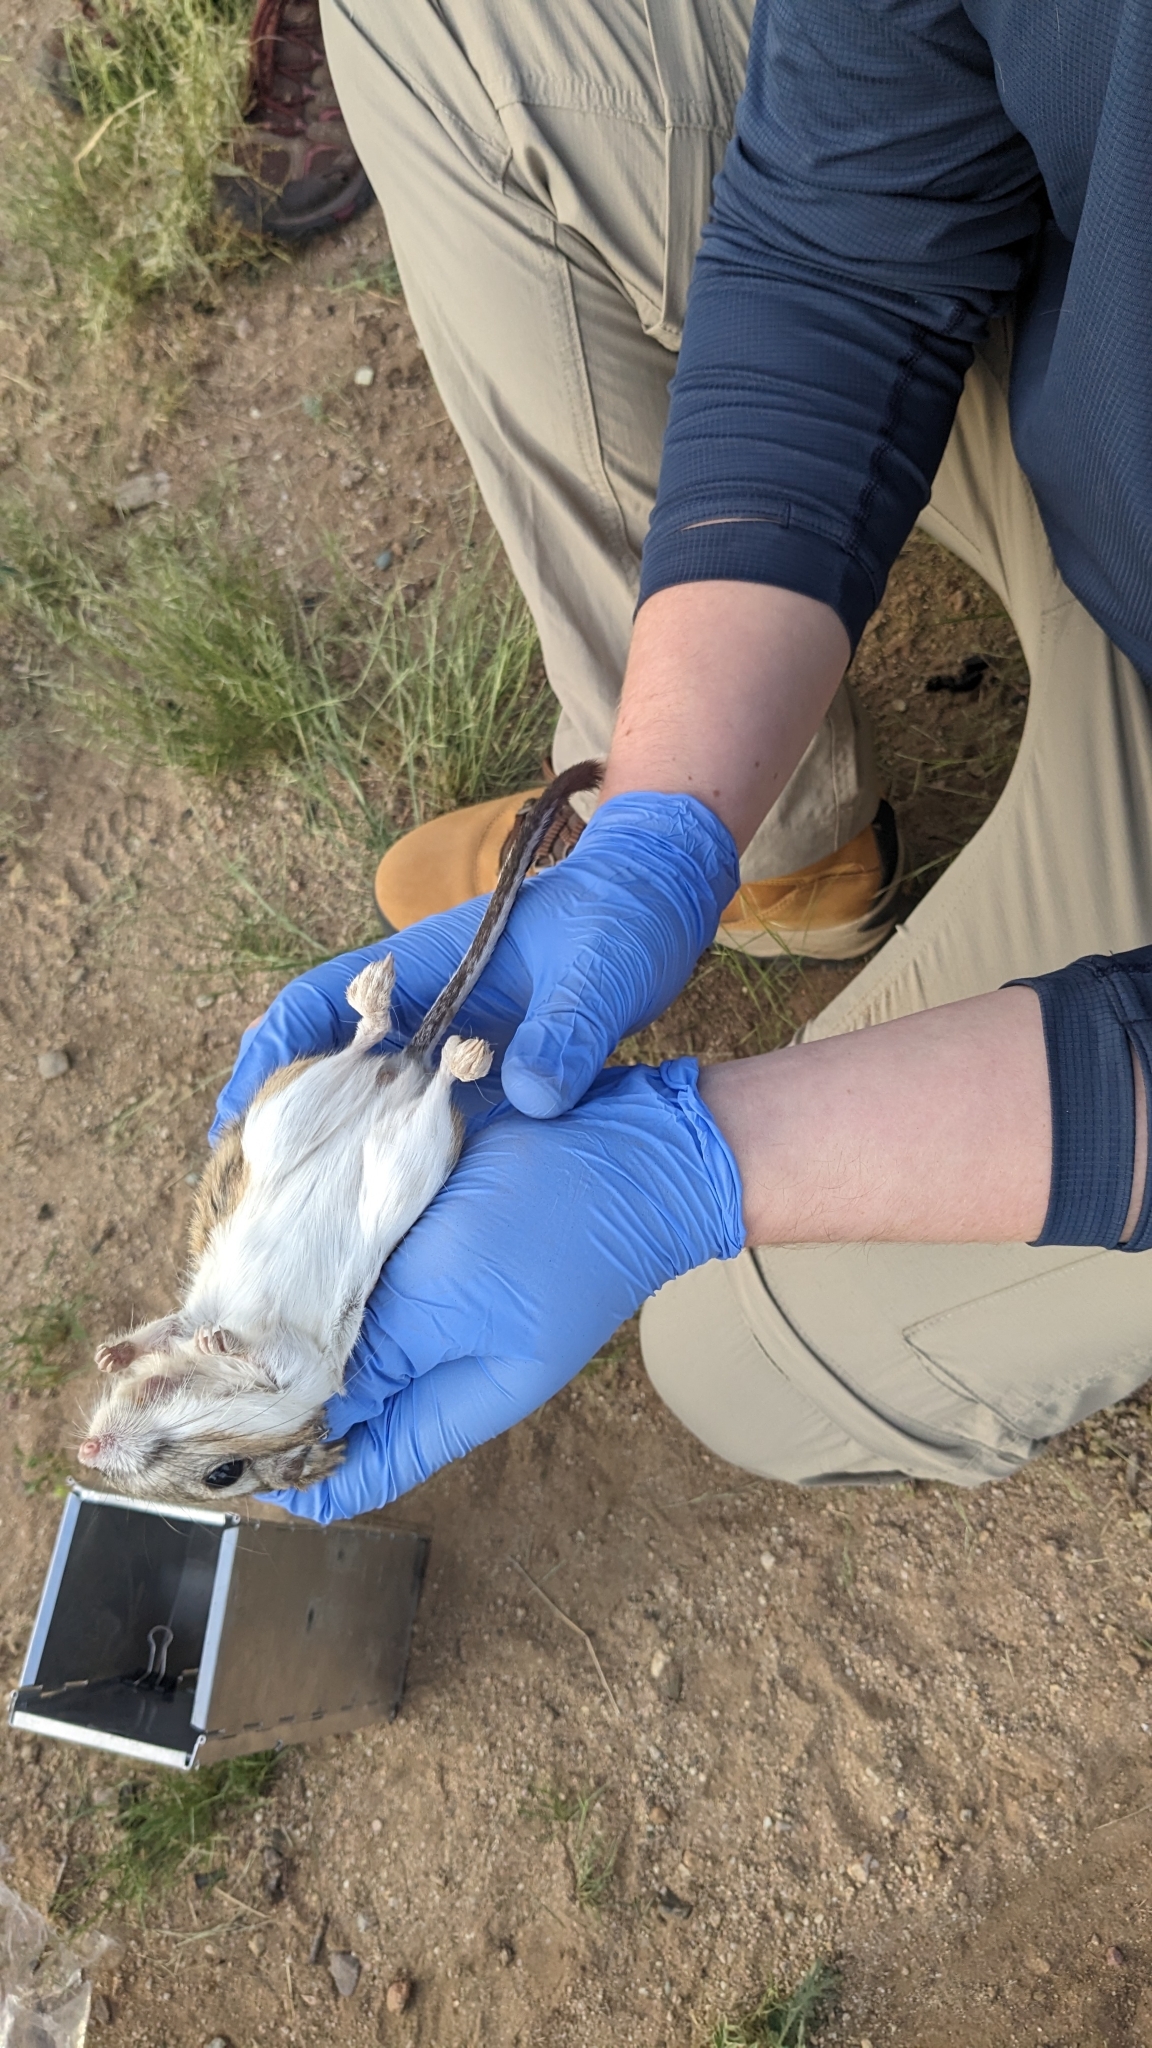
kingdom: Animalia
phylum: Chordata
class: Mammalia
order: Rodentia
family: Heteromyidae
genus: Dipodomys
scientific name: Dipodomys spectabilis
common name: Banner-tailed kangaroo rat
